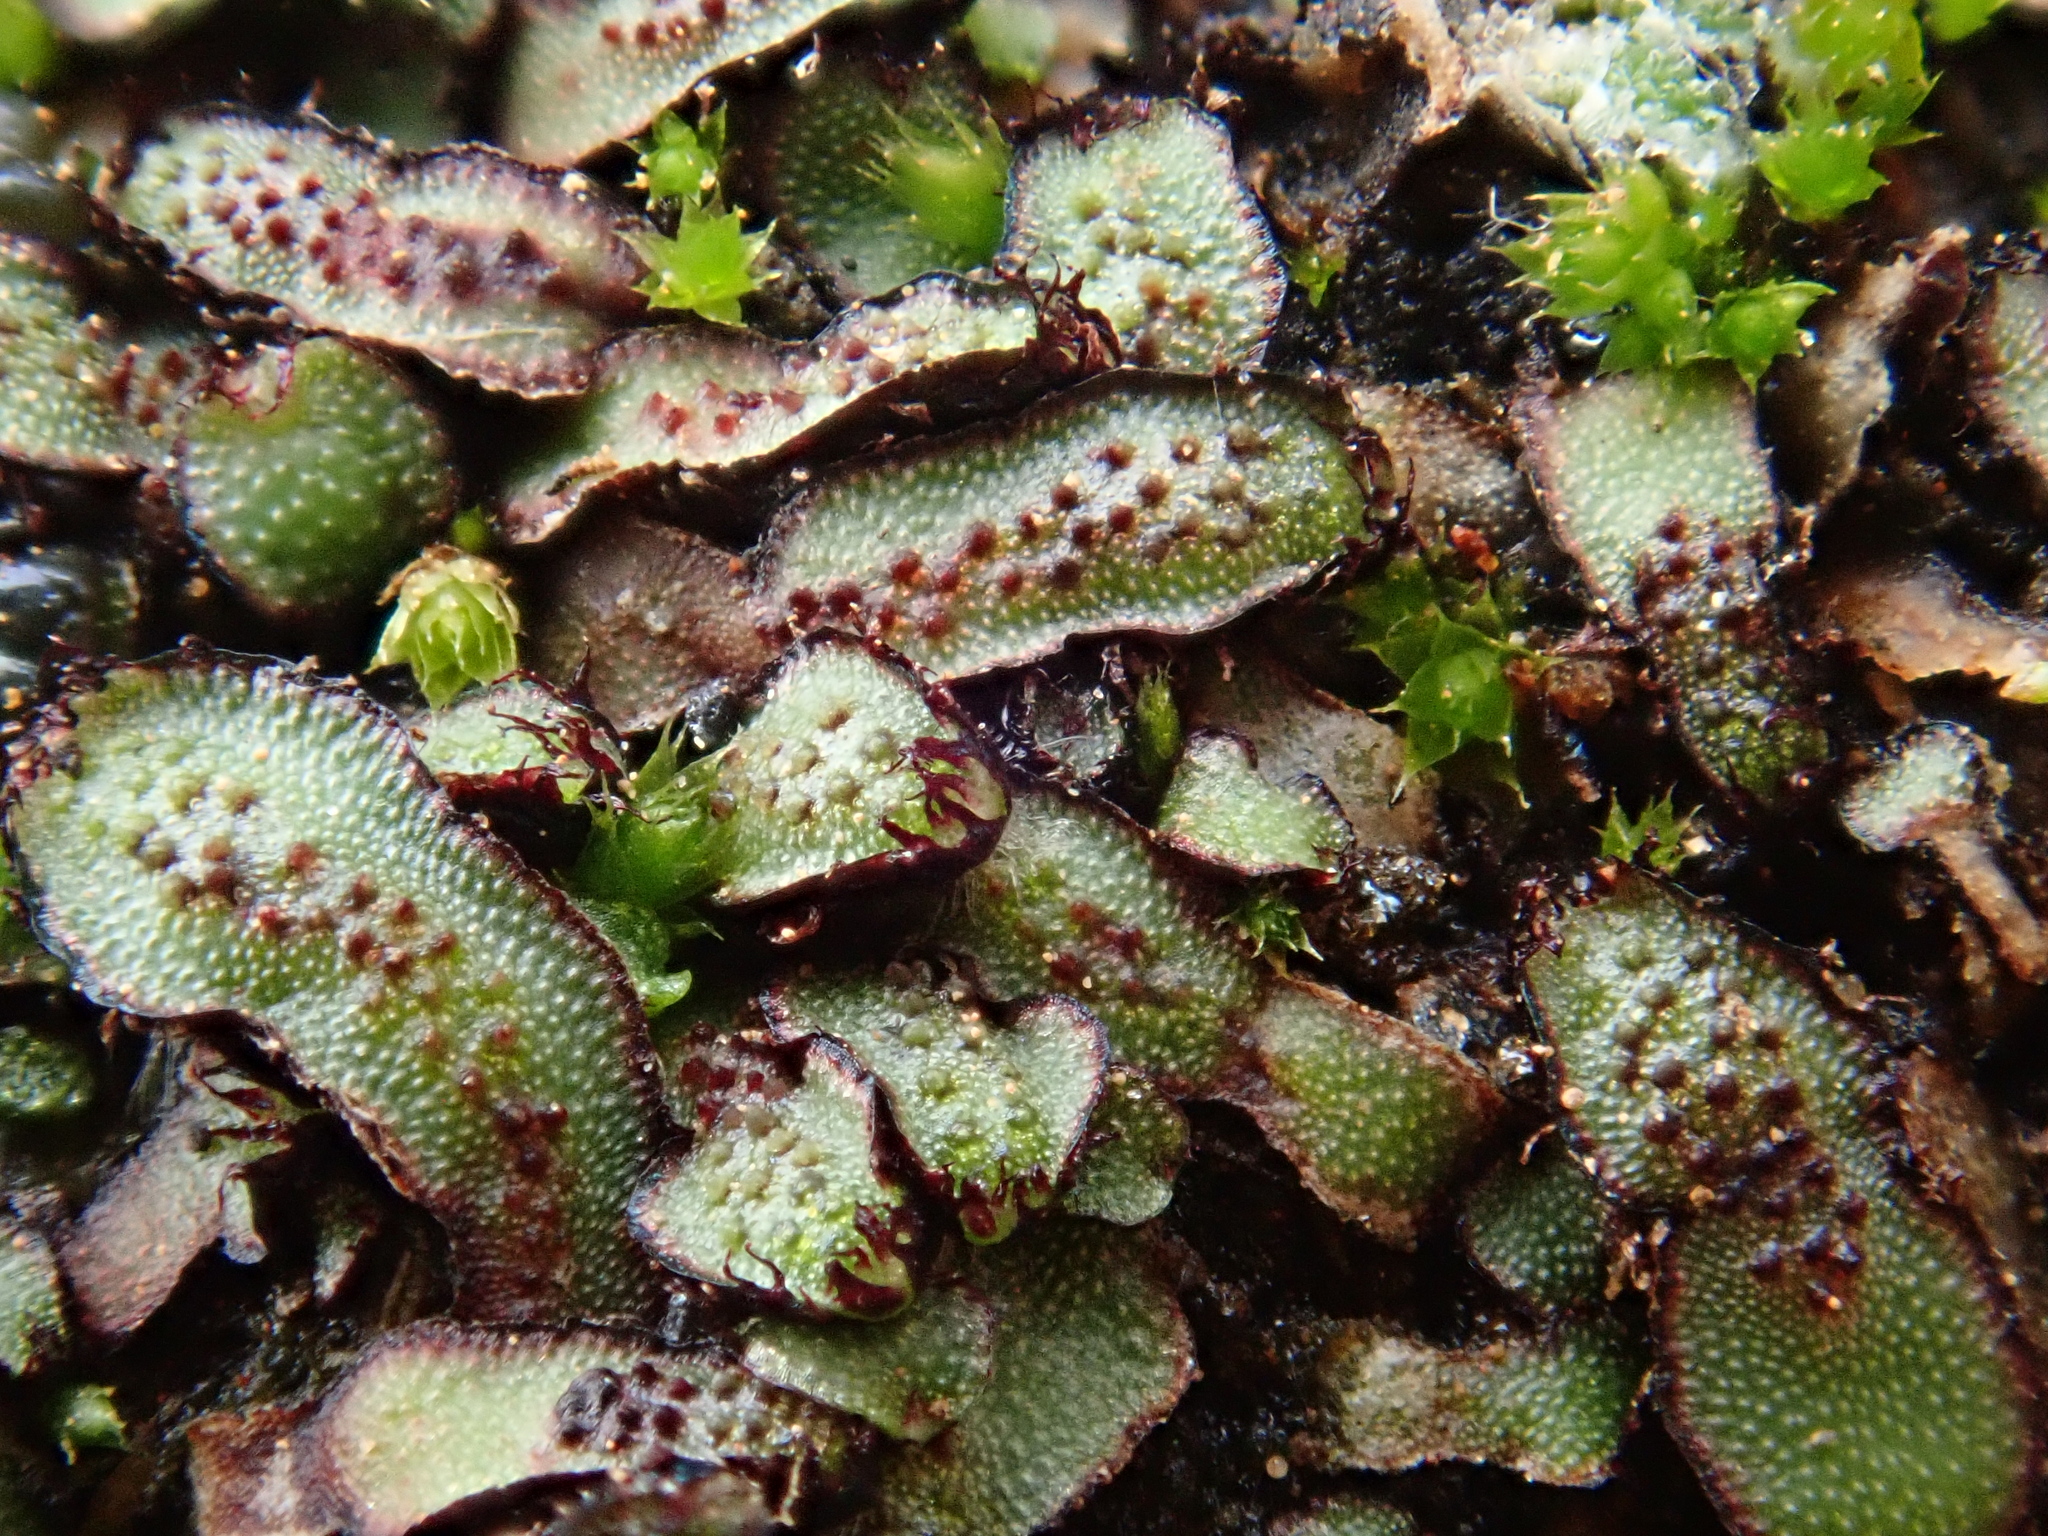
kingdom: Plantae
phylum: Marchantiophyta
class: Marchantiopsida
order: Marchantiales
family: Aytoniaceae
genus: Mannia
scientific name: Mannia androgyna
